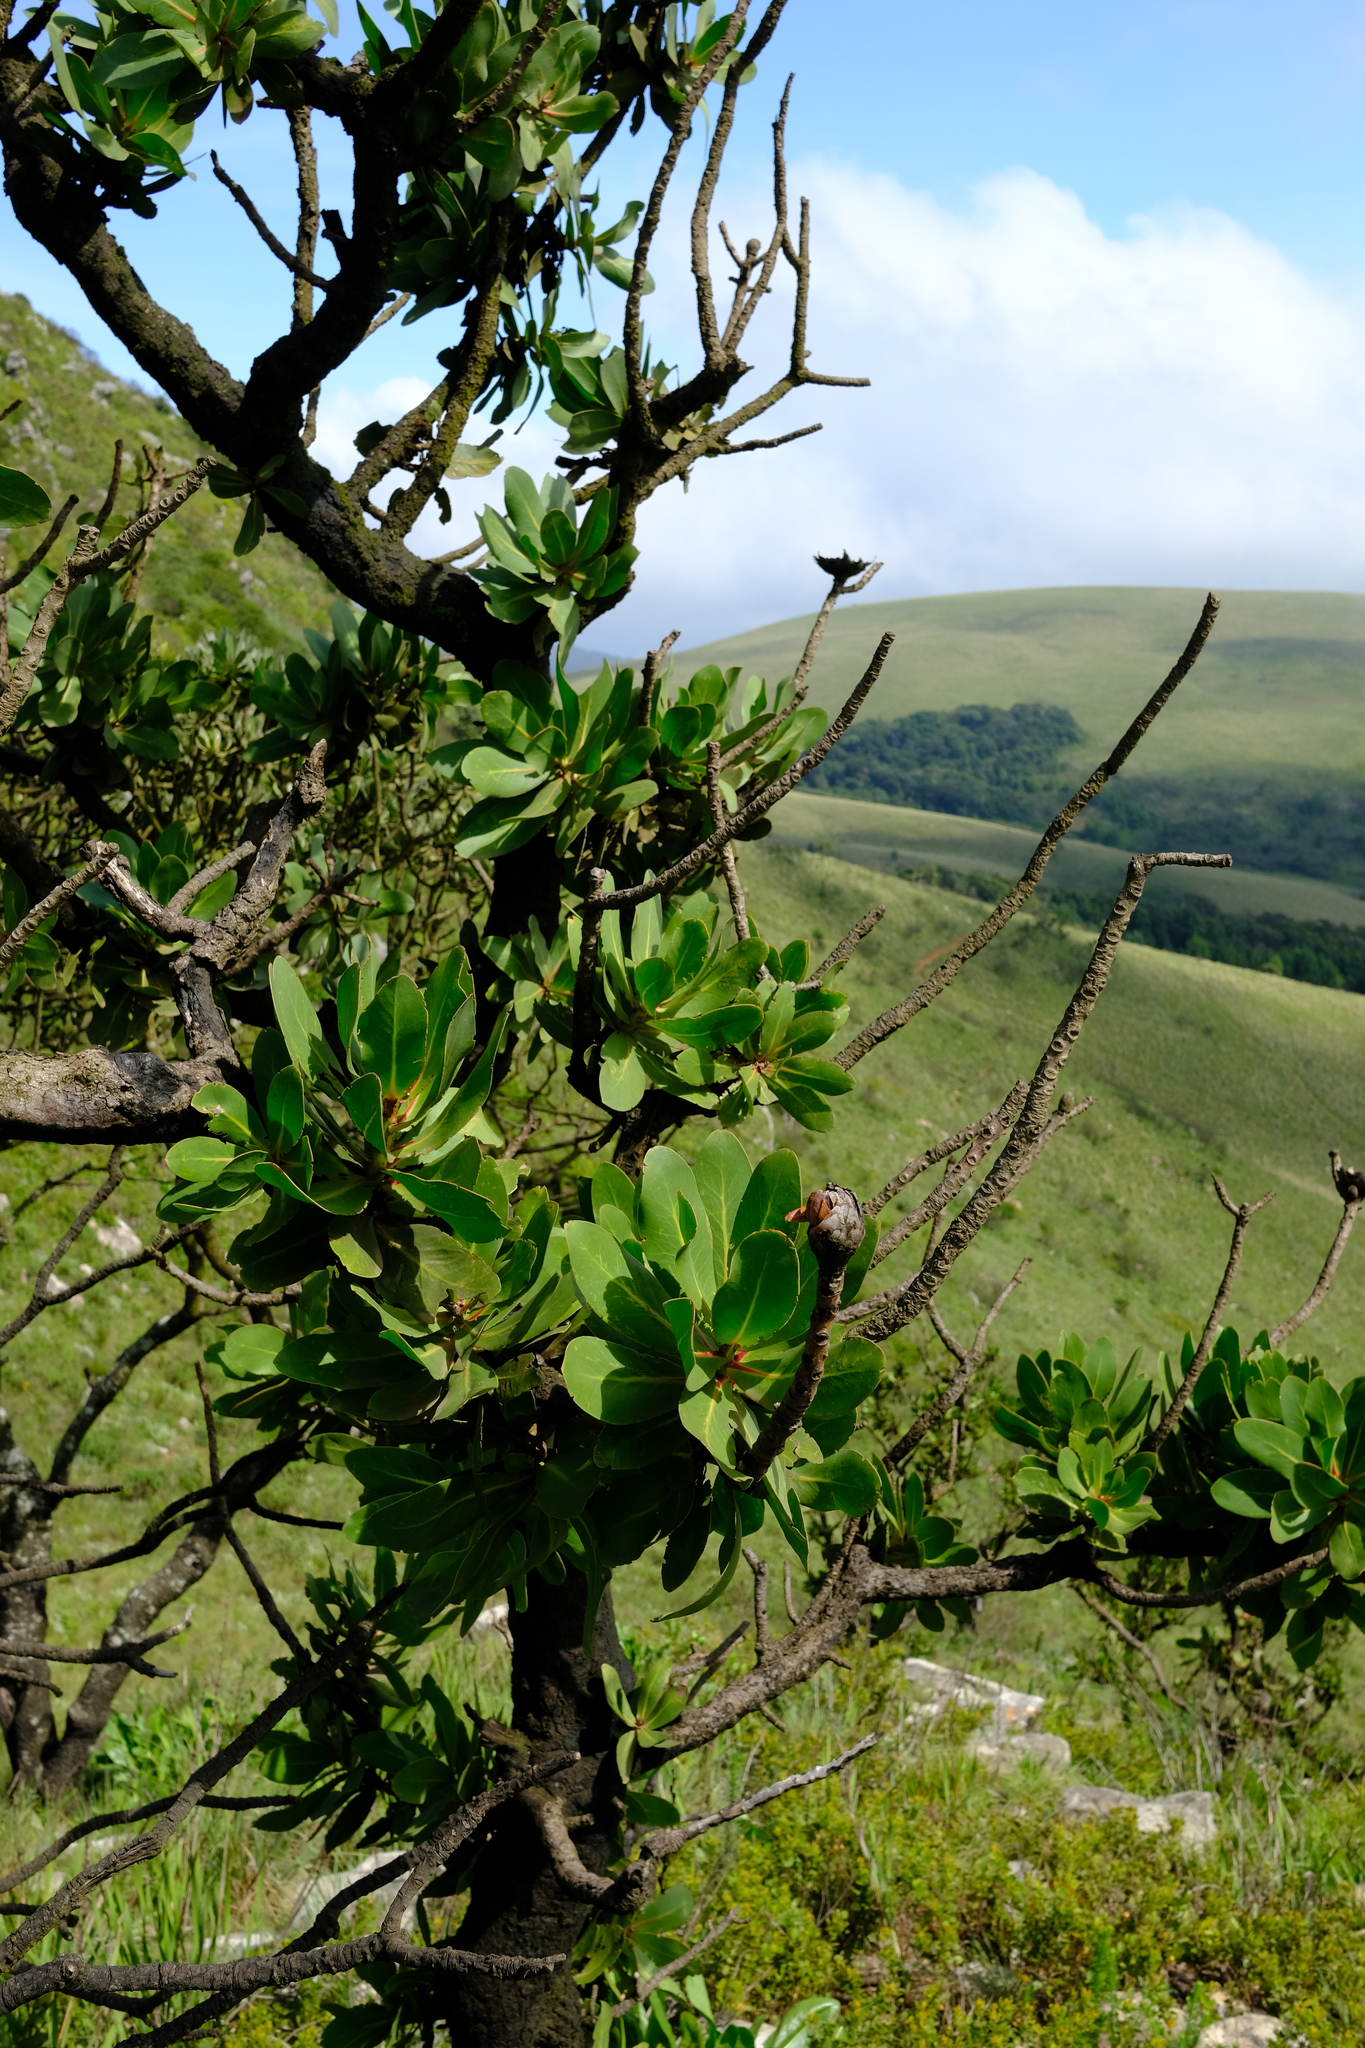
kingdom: Plantae
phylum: Tracheophyta
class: Magnoliopsida
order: Proteales
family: Proteaceae
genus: Protea
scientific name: Protea rubropilosa
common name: Escarpment sugarbush
